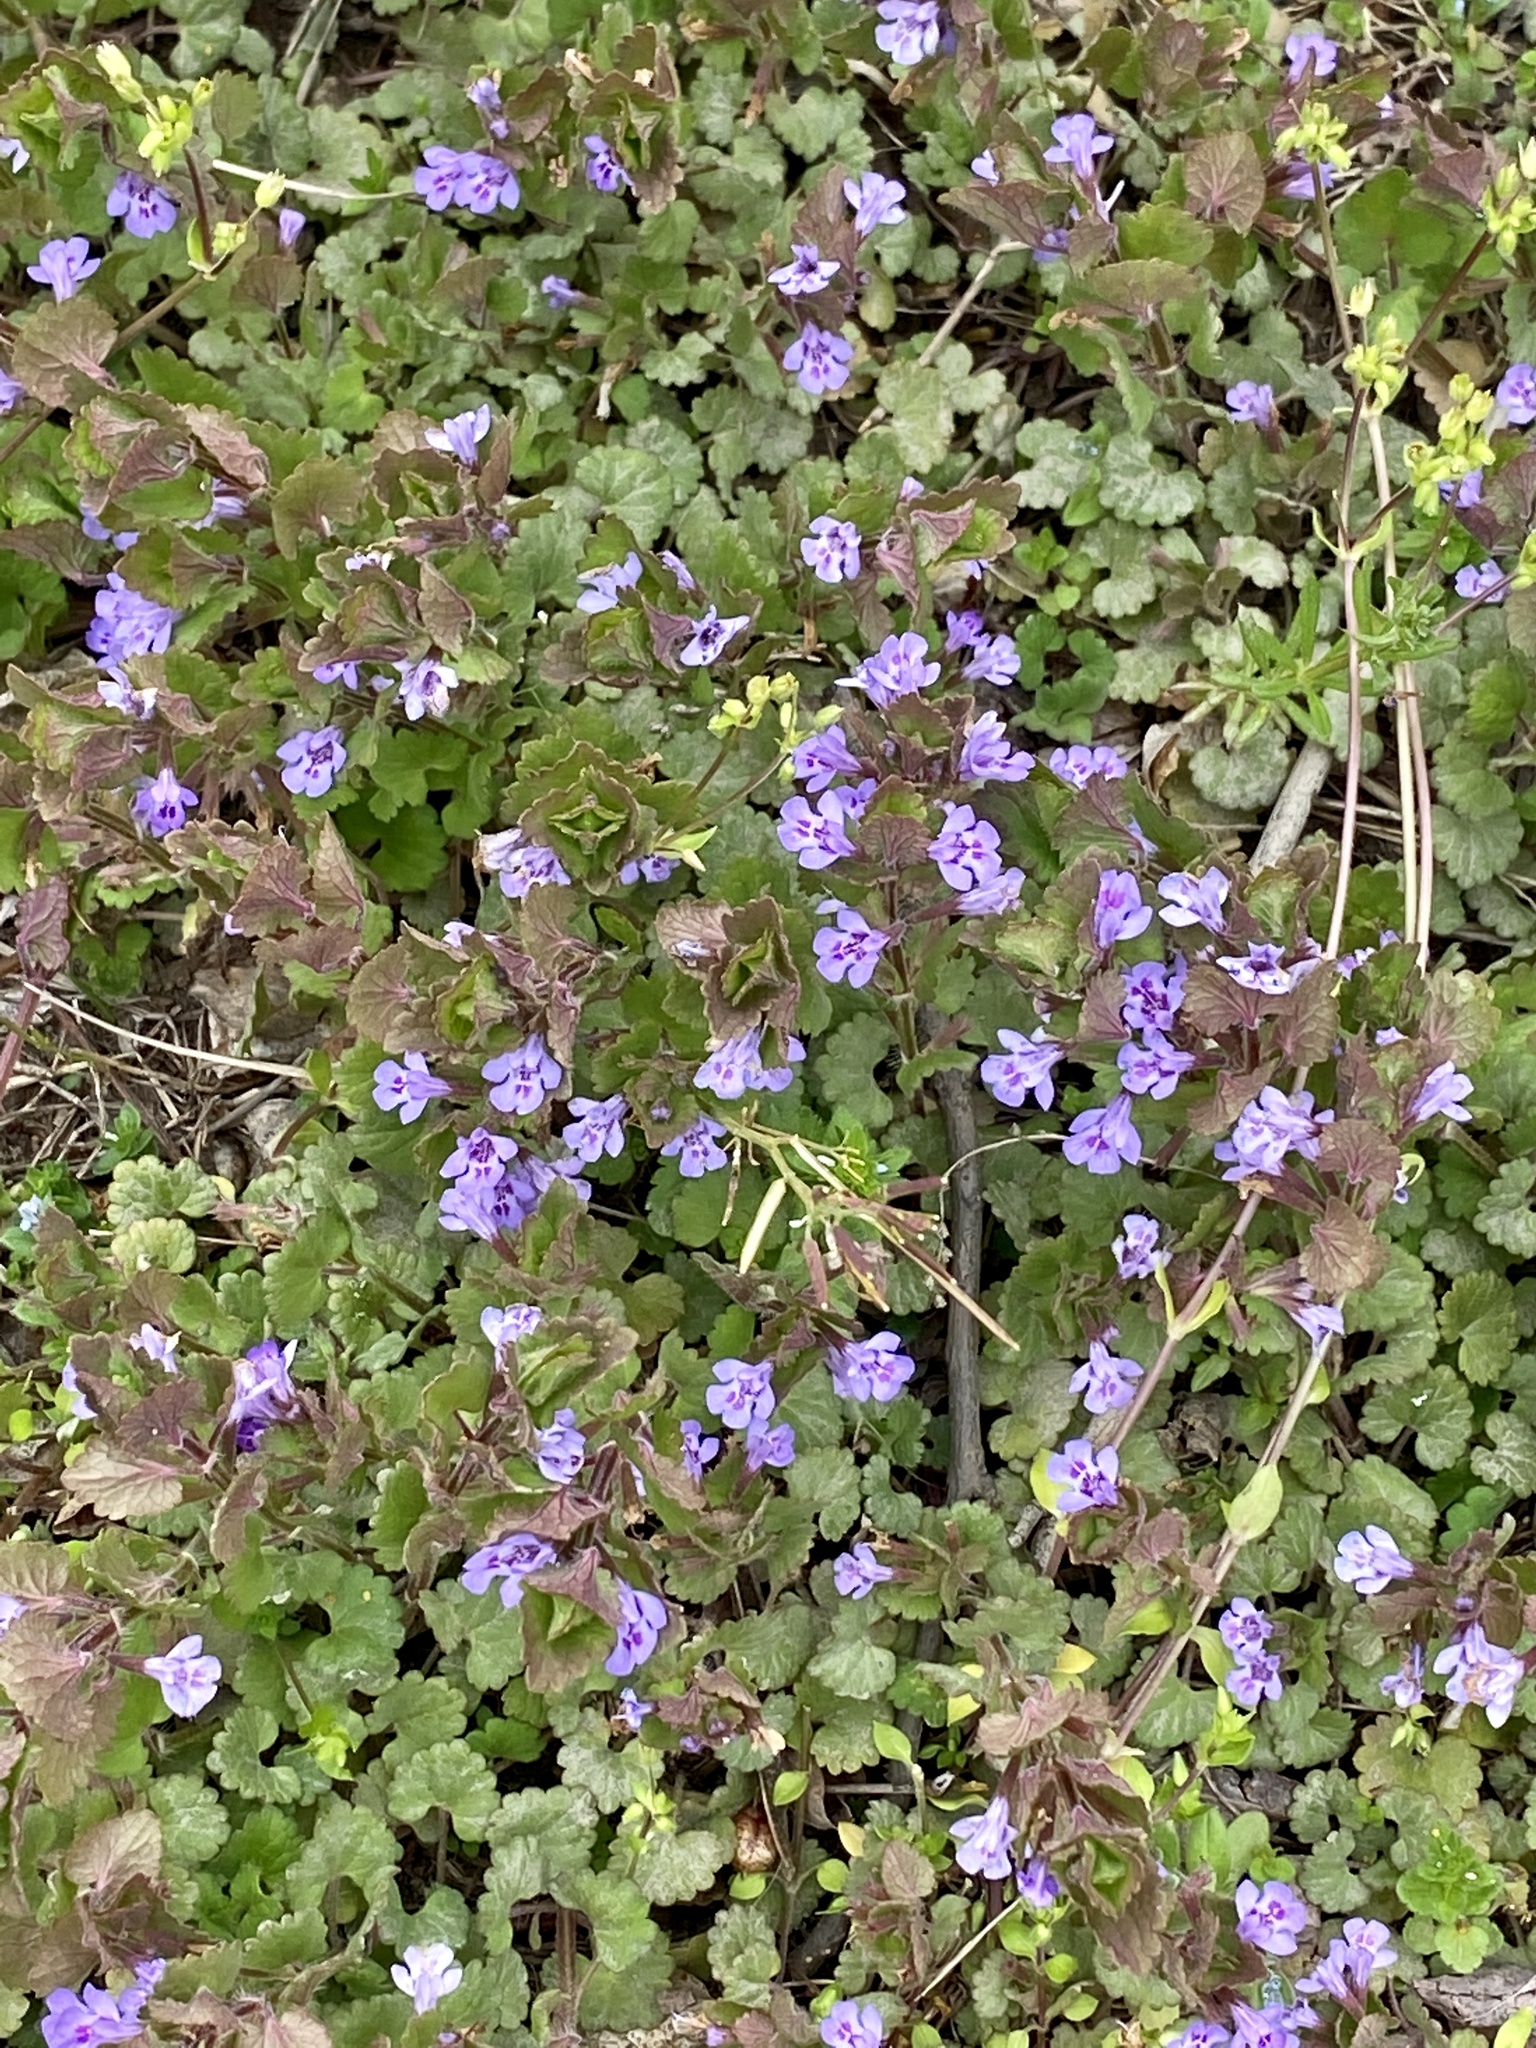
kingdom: Plantae
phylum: Tracheophyta
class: Magnoliopsida
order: Lamiales
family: Lamiaceae
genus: Glechoma
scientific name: Glechoma hederacea
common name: Ground ivy
